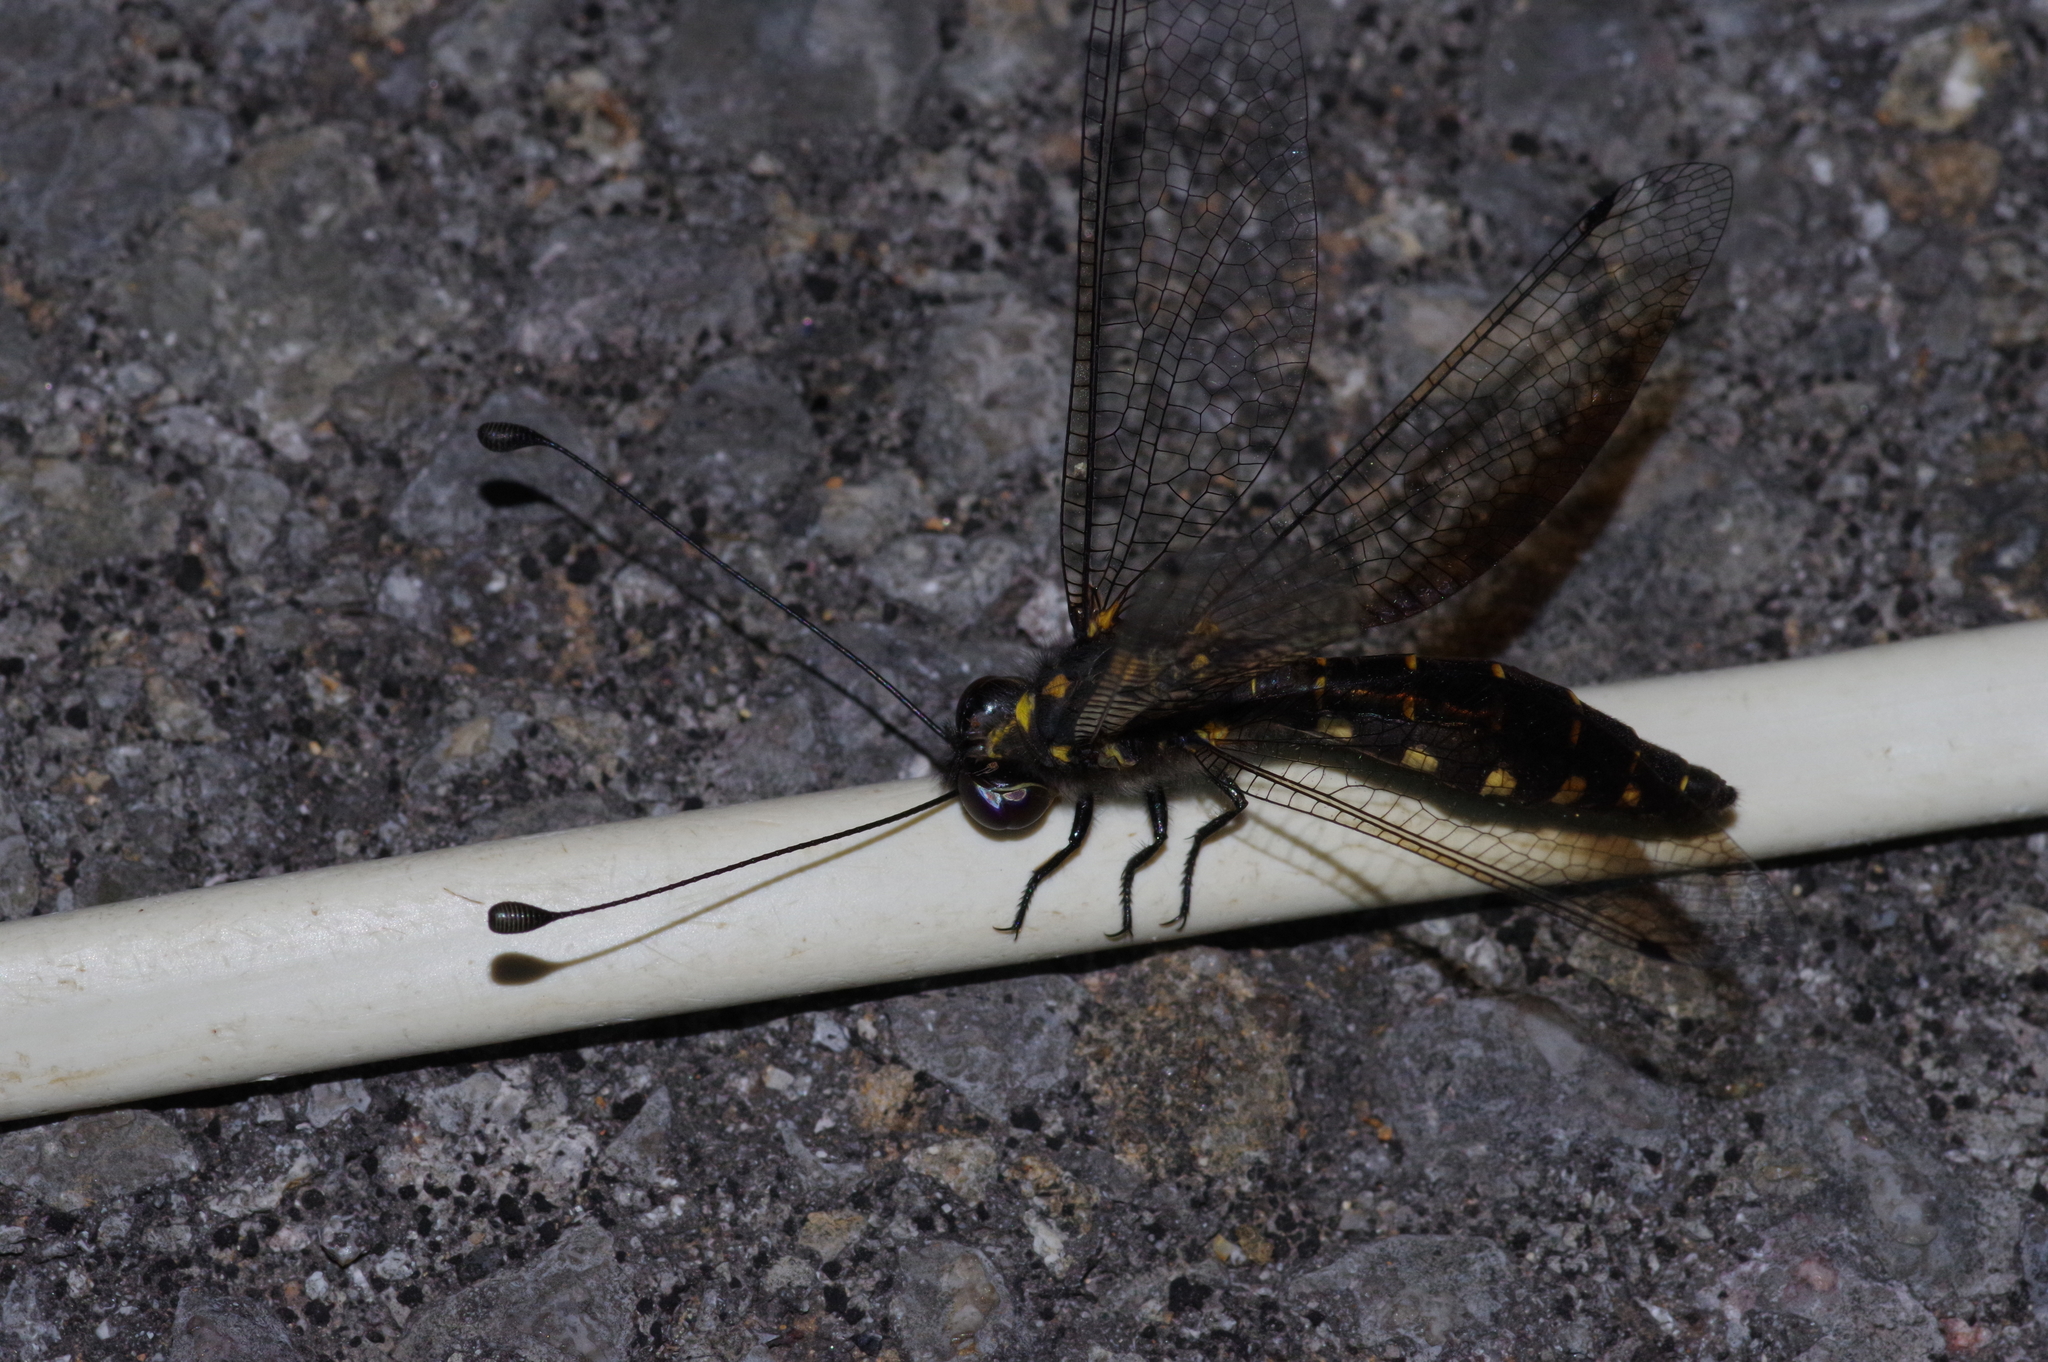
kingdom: Animalia
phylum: Arthropoda
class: Insecta
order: Neuroptera
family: Ascalaphidae
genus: Suphalomitus
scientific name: Suphalomitus okinavensis
